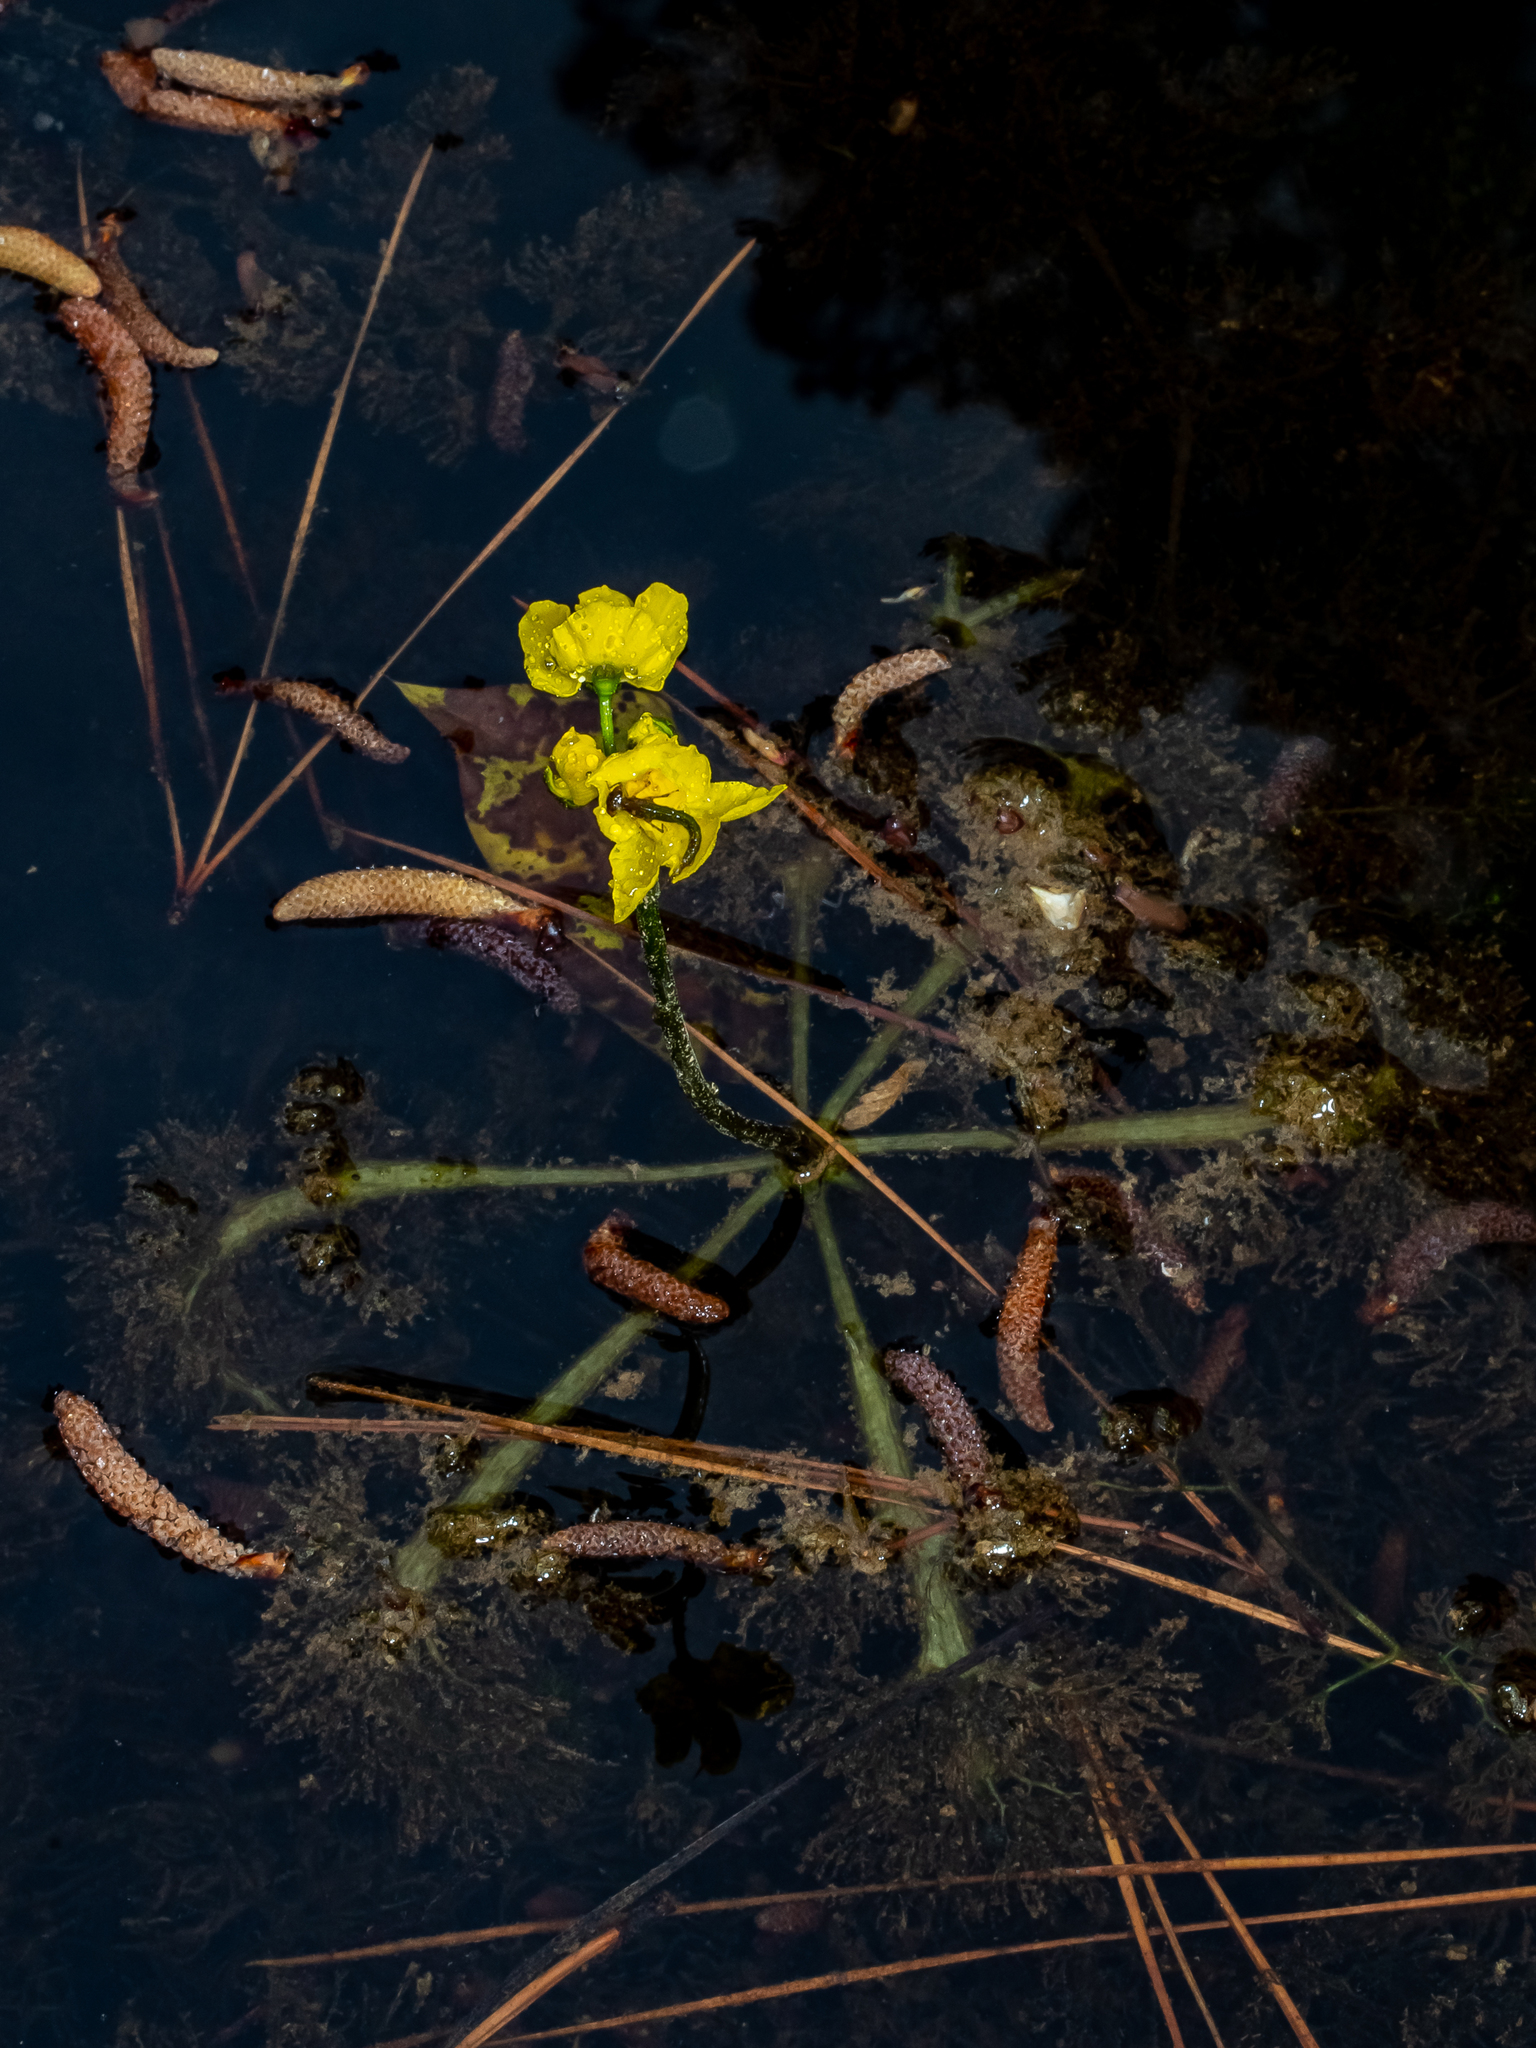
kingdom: Plantae
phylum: Tracheophyta
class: Magnoliopsida
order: Lamiales
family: Lentibulariaceae
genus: Utricularia
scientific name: Utricularia inflata
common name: Floating bladderwort
